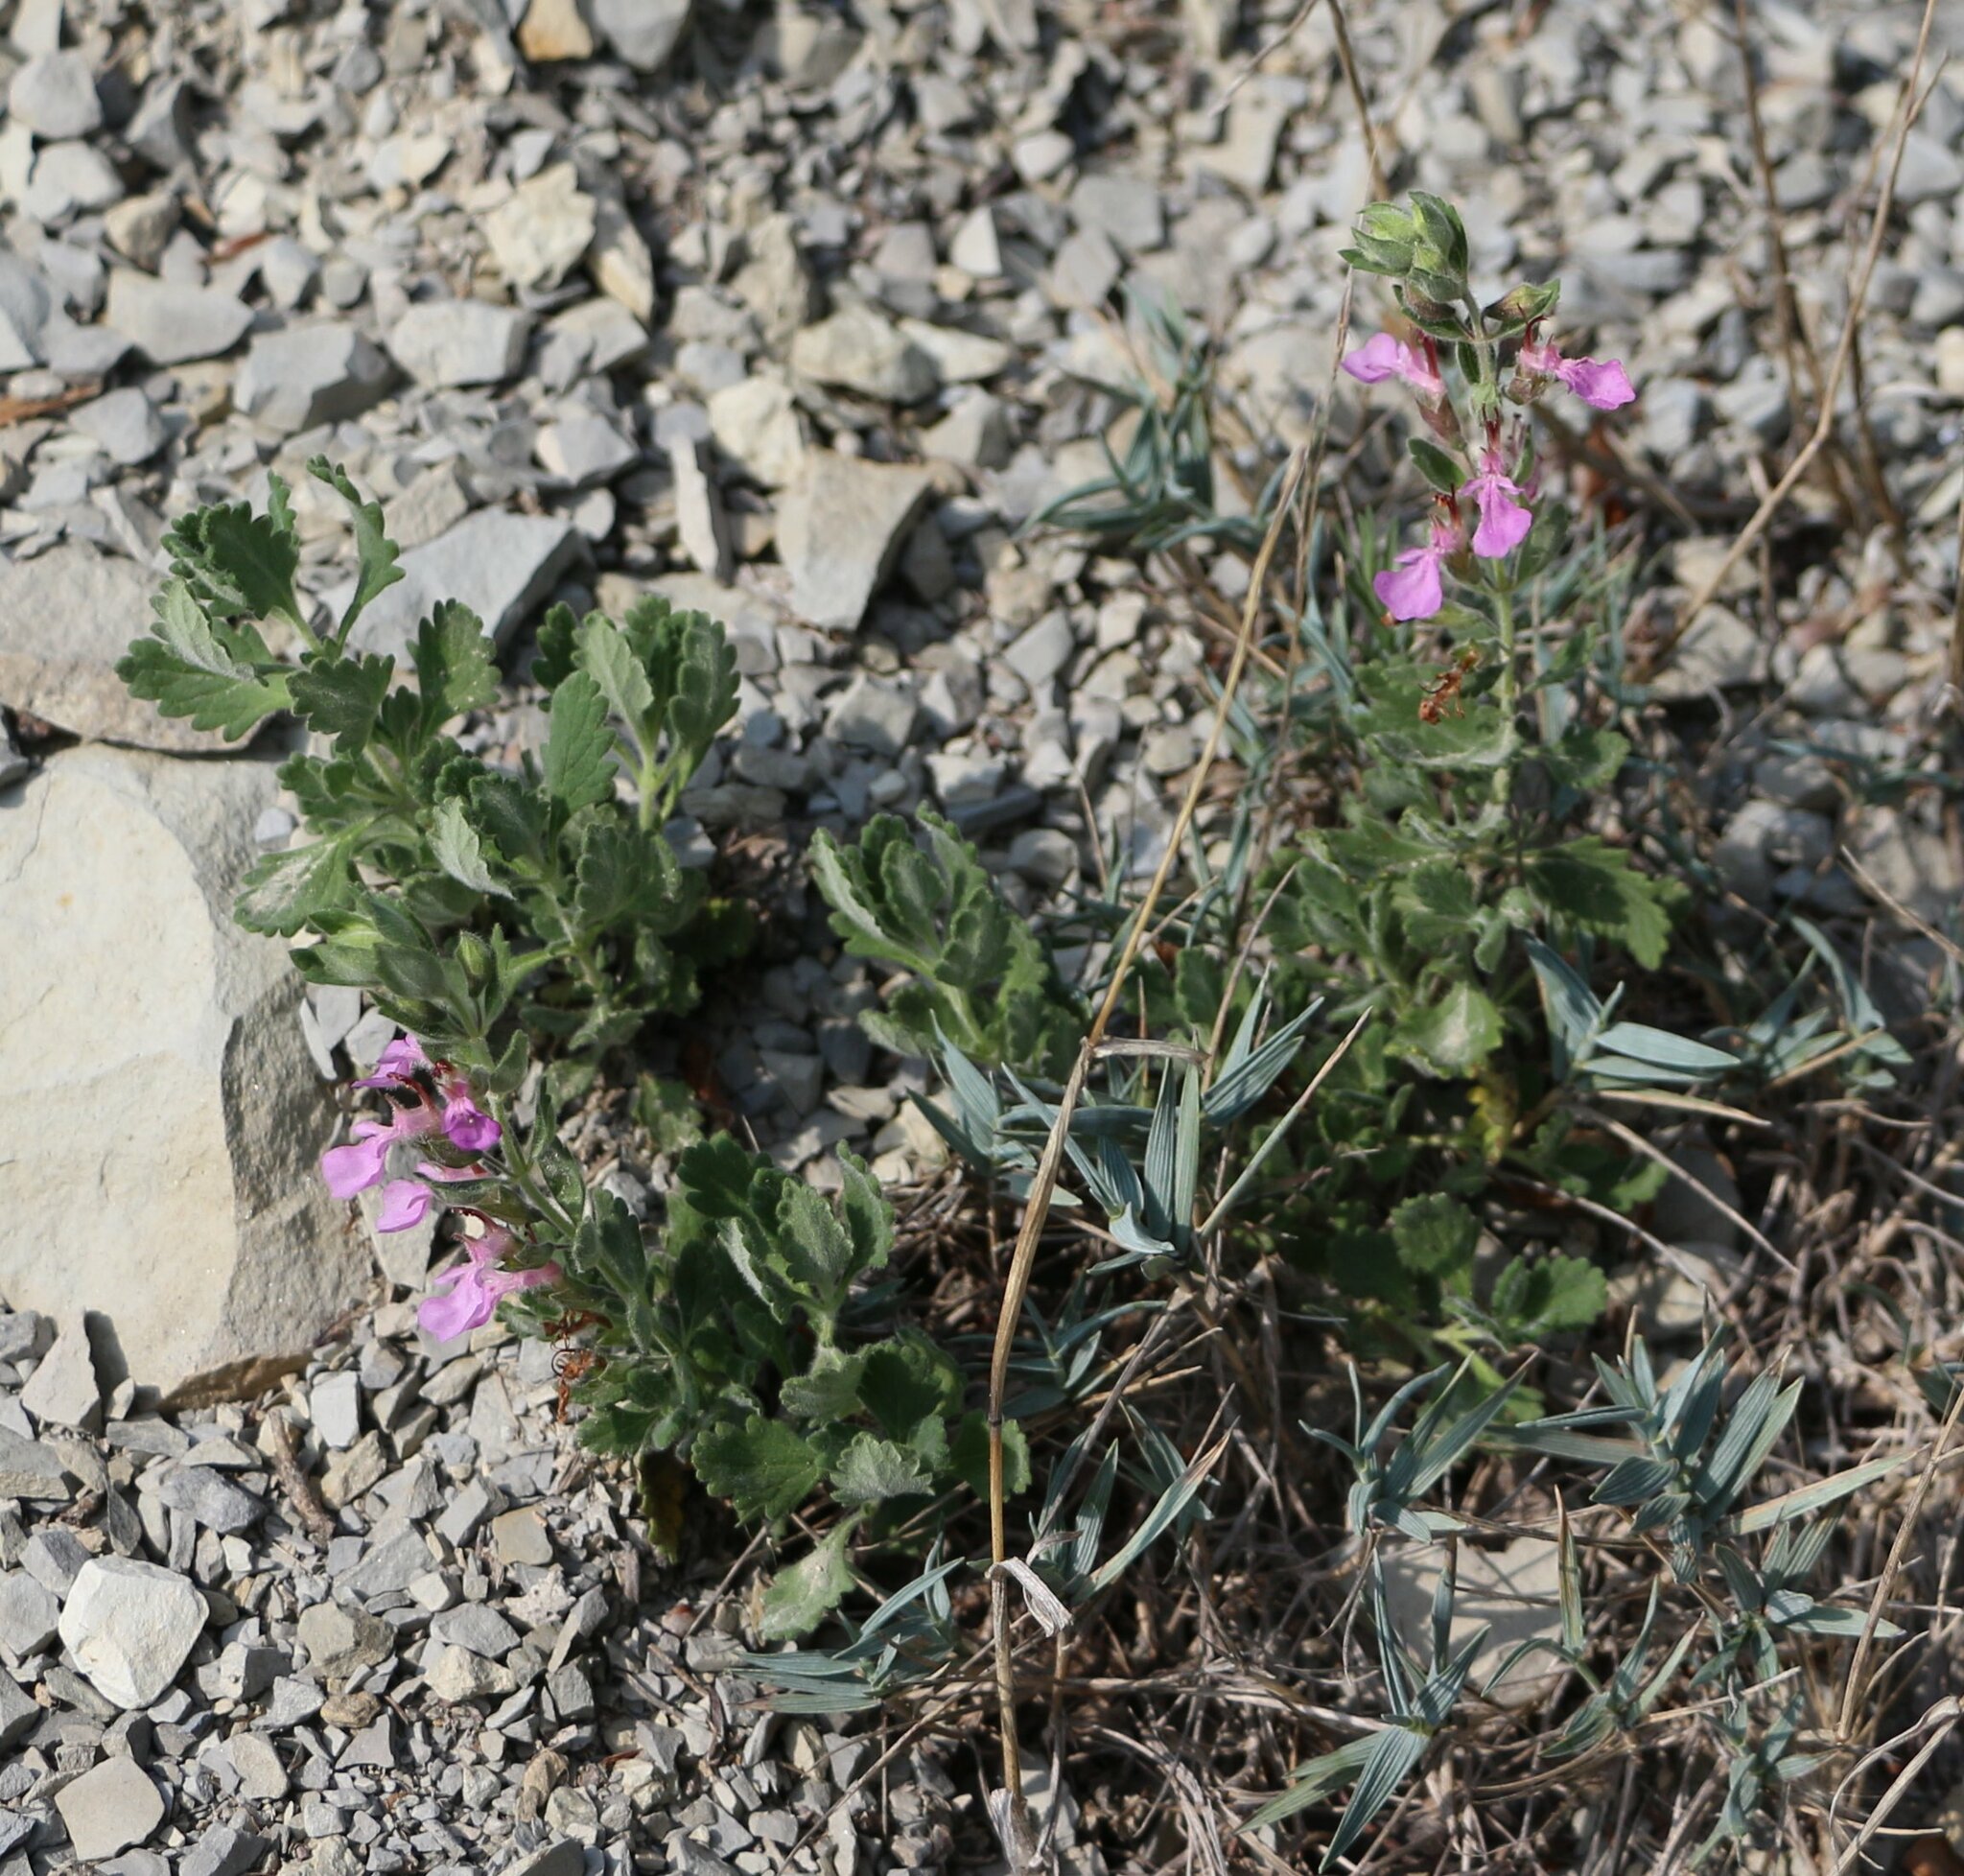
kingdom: Plantae
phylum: Tracheophyta
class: Magnoliopsida
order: Lamiales
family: Lamiaceae
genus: Teucrium
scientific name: Teucrium chamaedrys
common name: Wall germander
